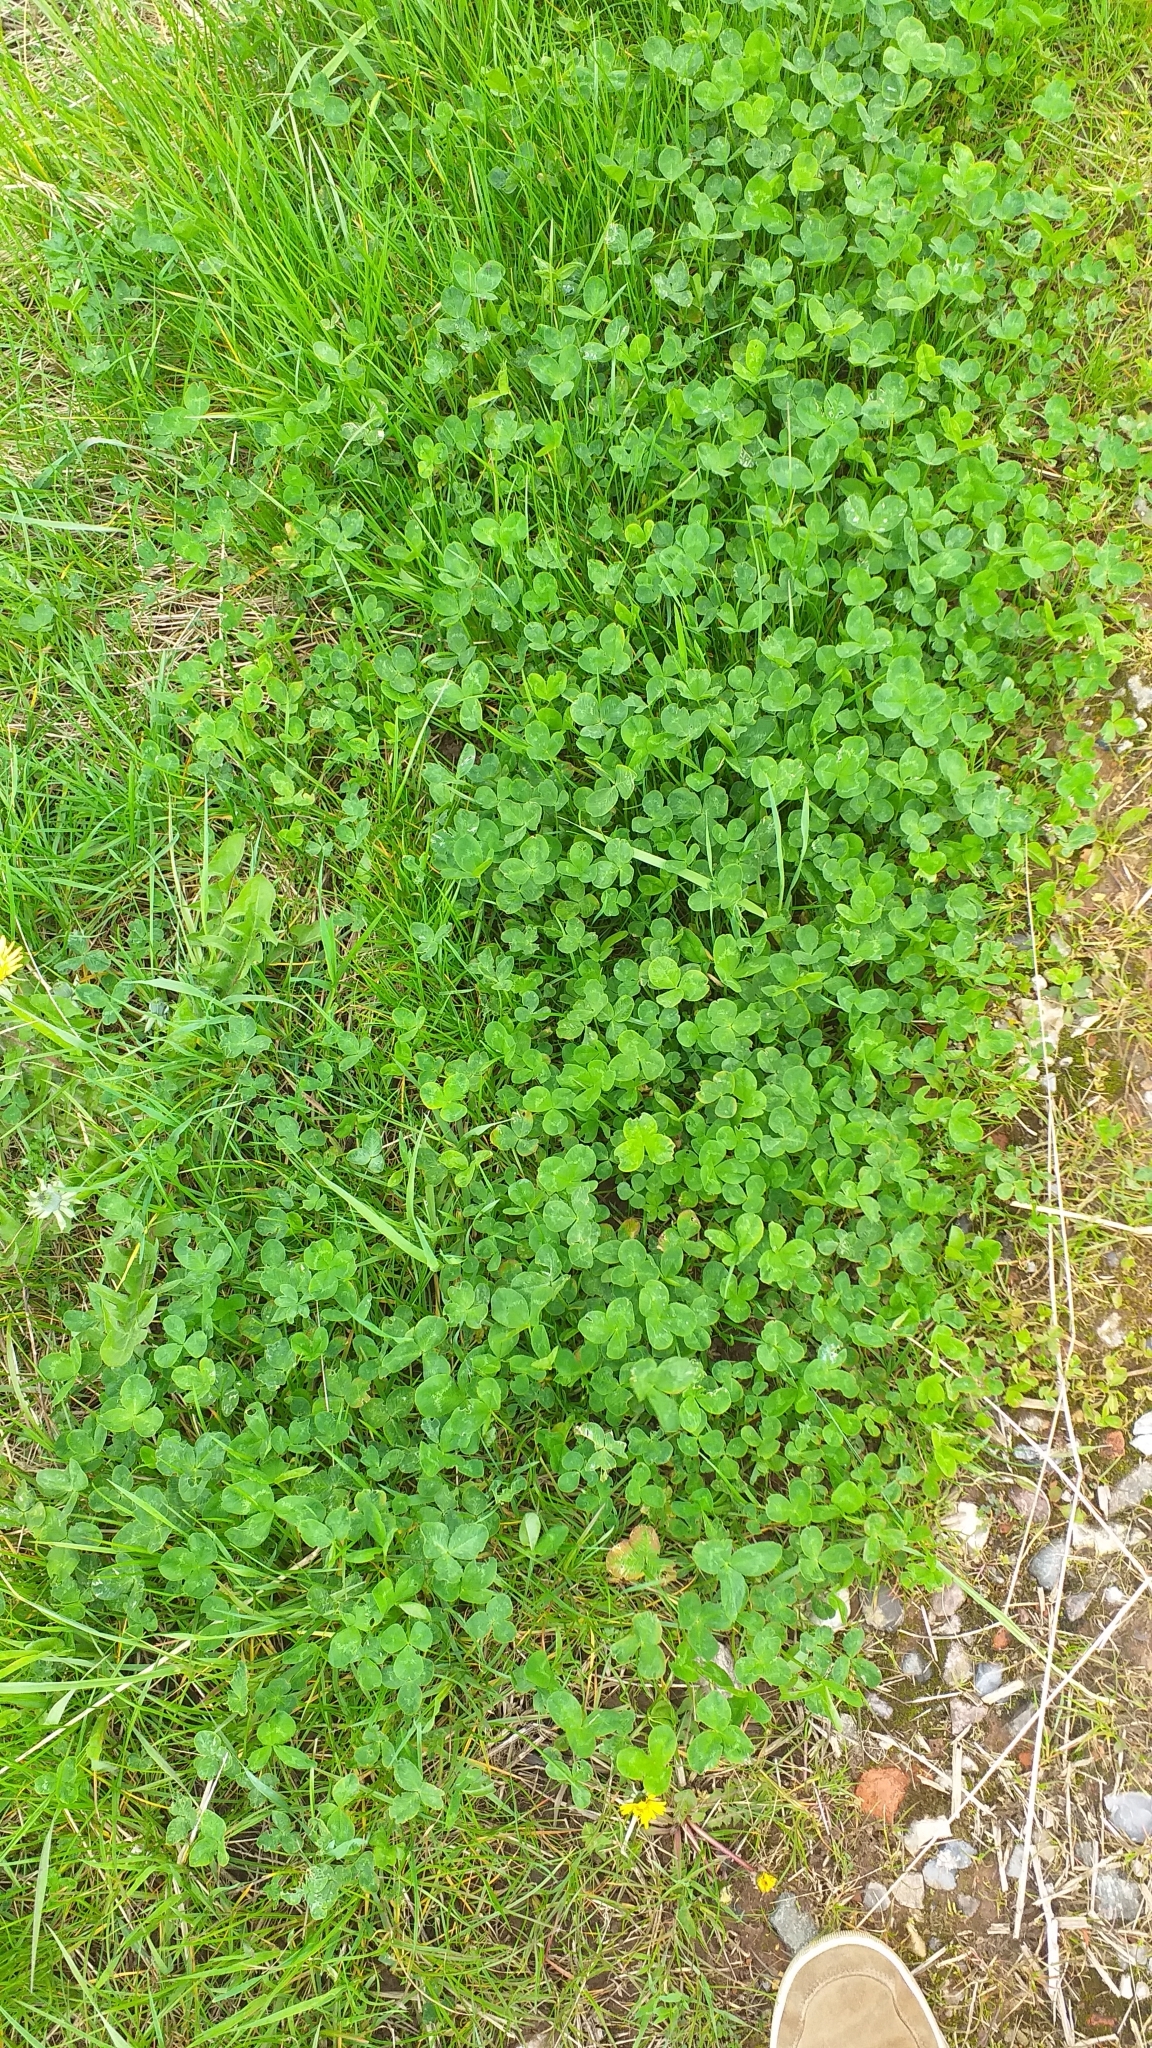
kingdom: Plantae
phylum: Tracheophyta
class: Magnoliopsida
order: Fabales
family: Fabaceae
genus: Trifolium
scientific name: Trifolium repens
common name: White clover
